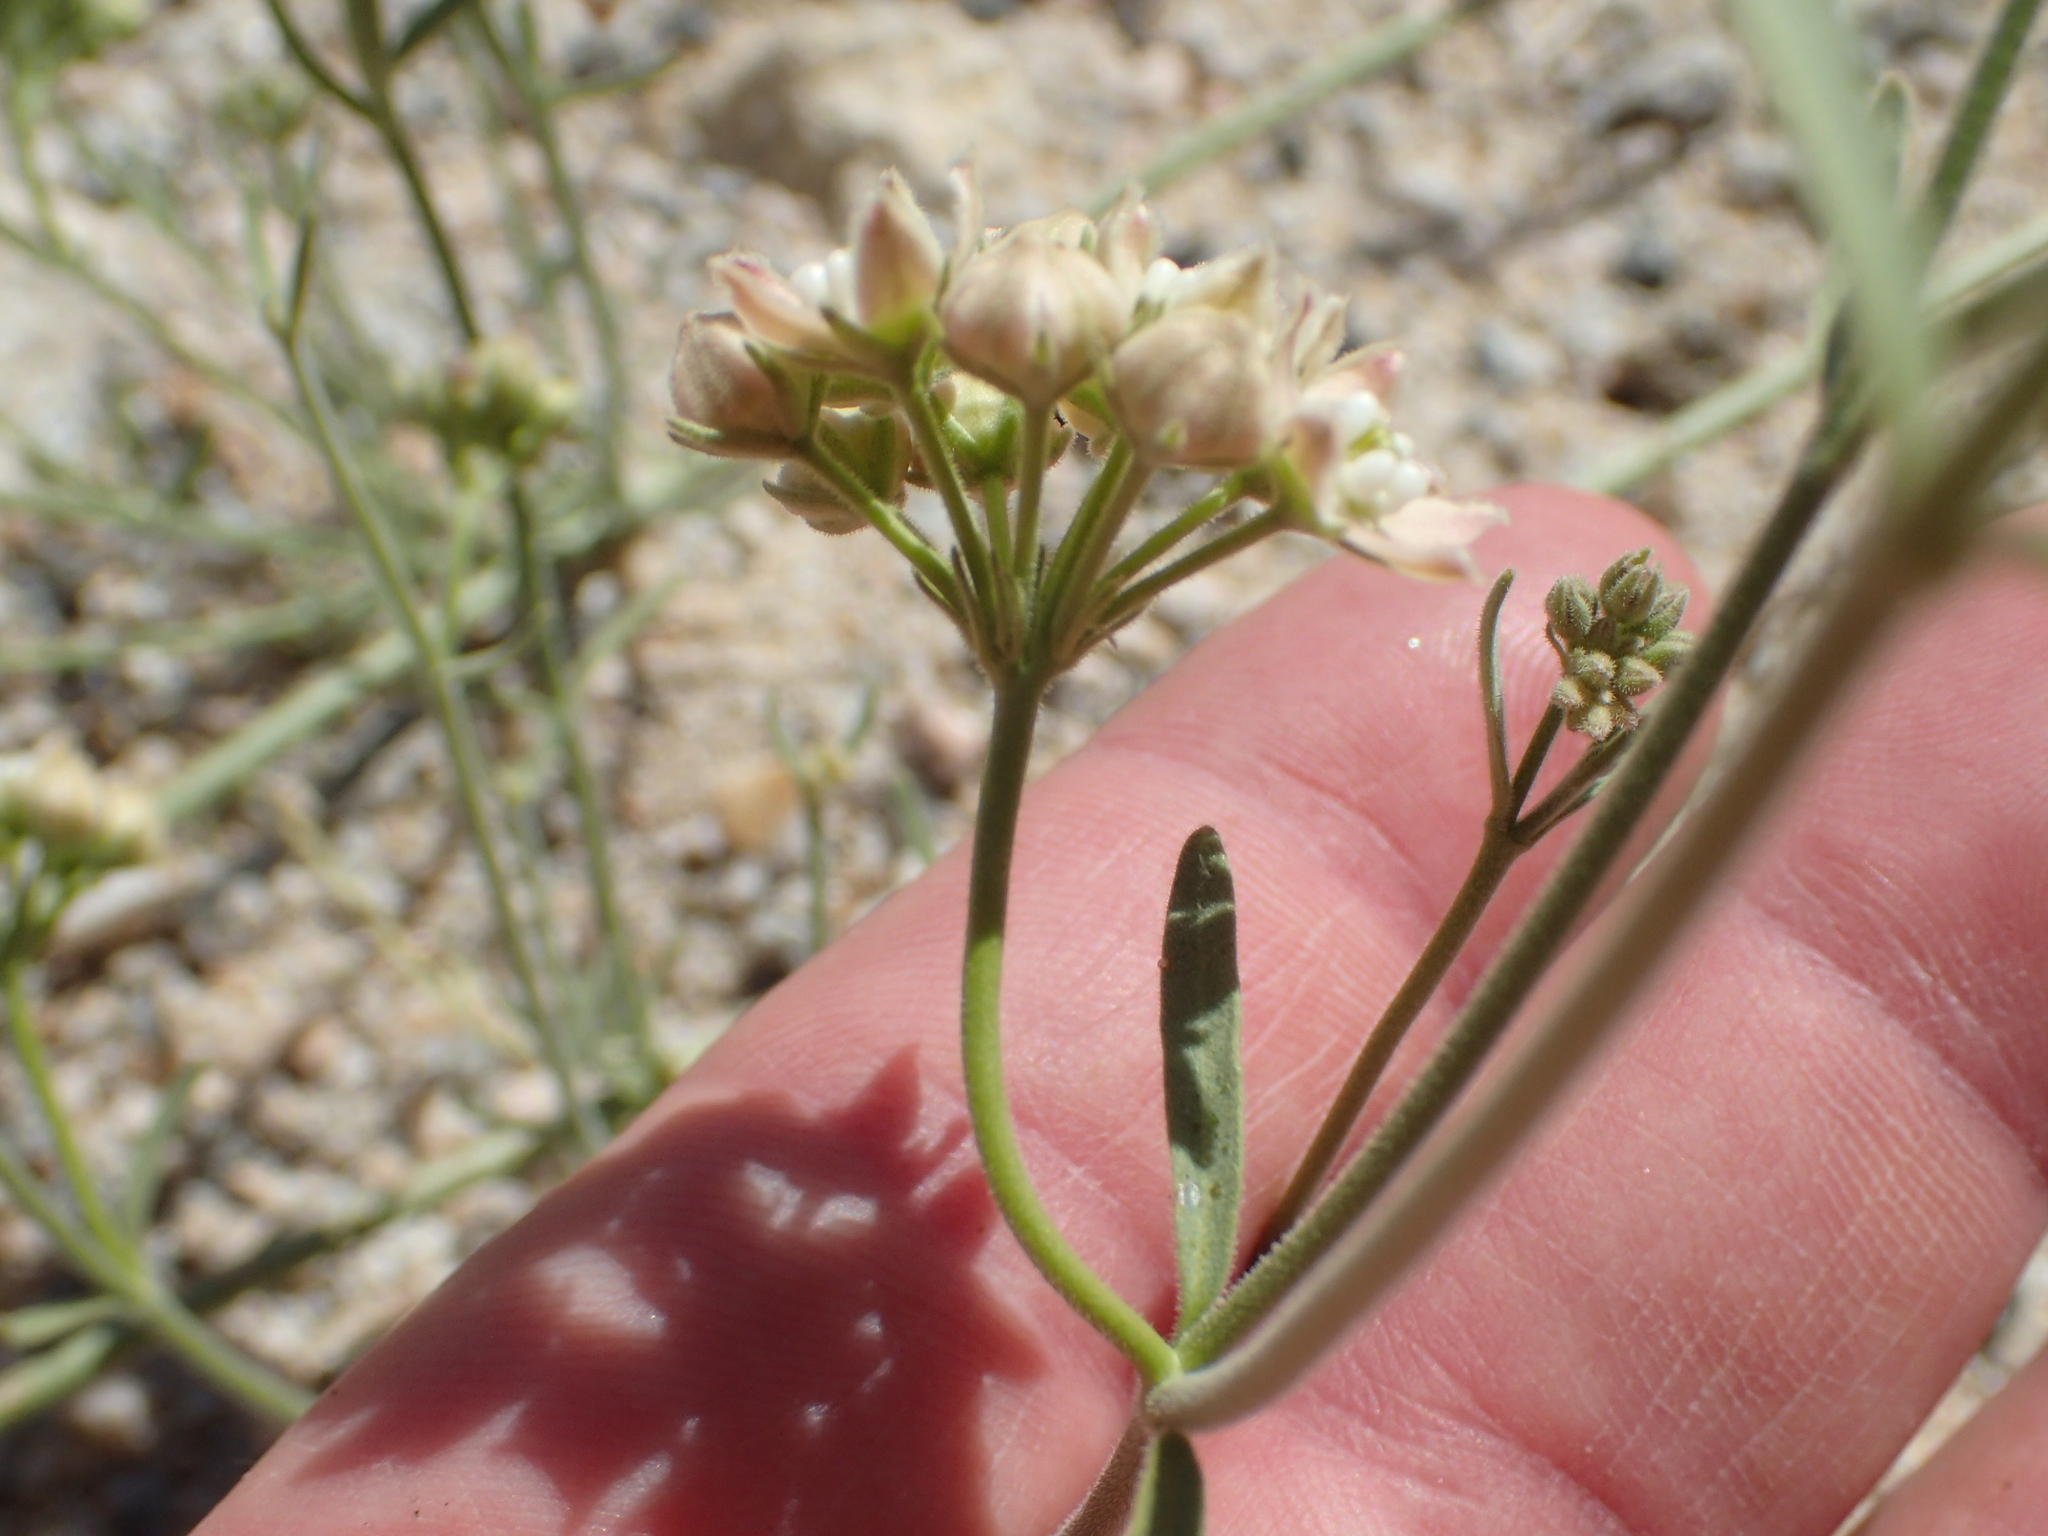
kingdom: Plantae
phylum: Tracheophyta
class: Magnoliopsida
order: Gentianales
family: Apocynaceae
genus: Funastrum
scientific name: Funastrum hirtellum
